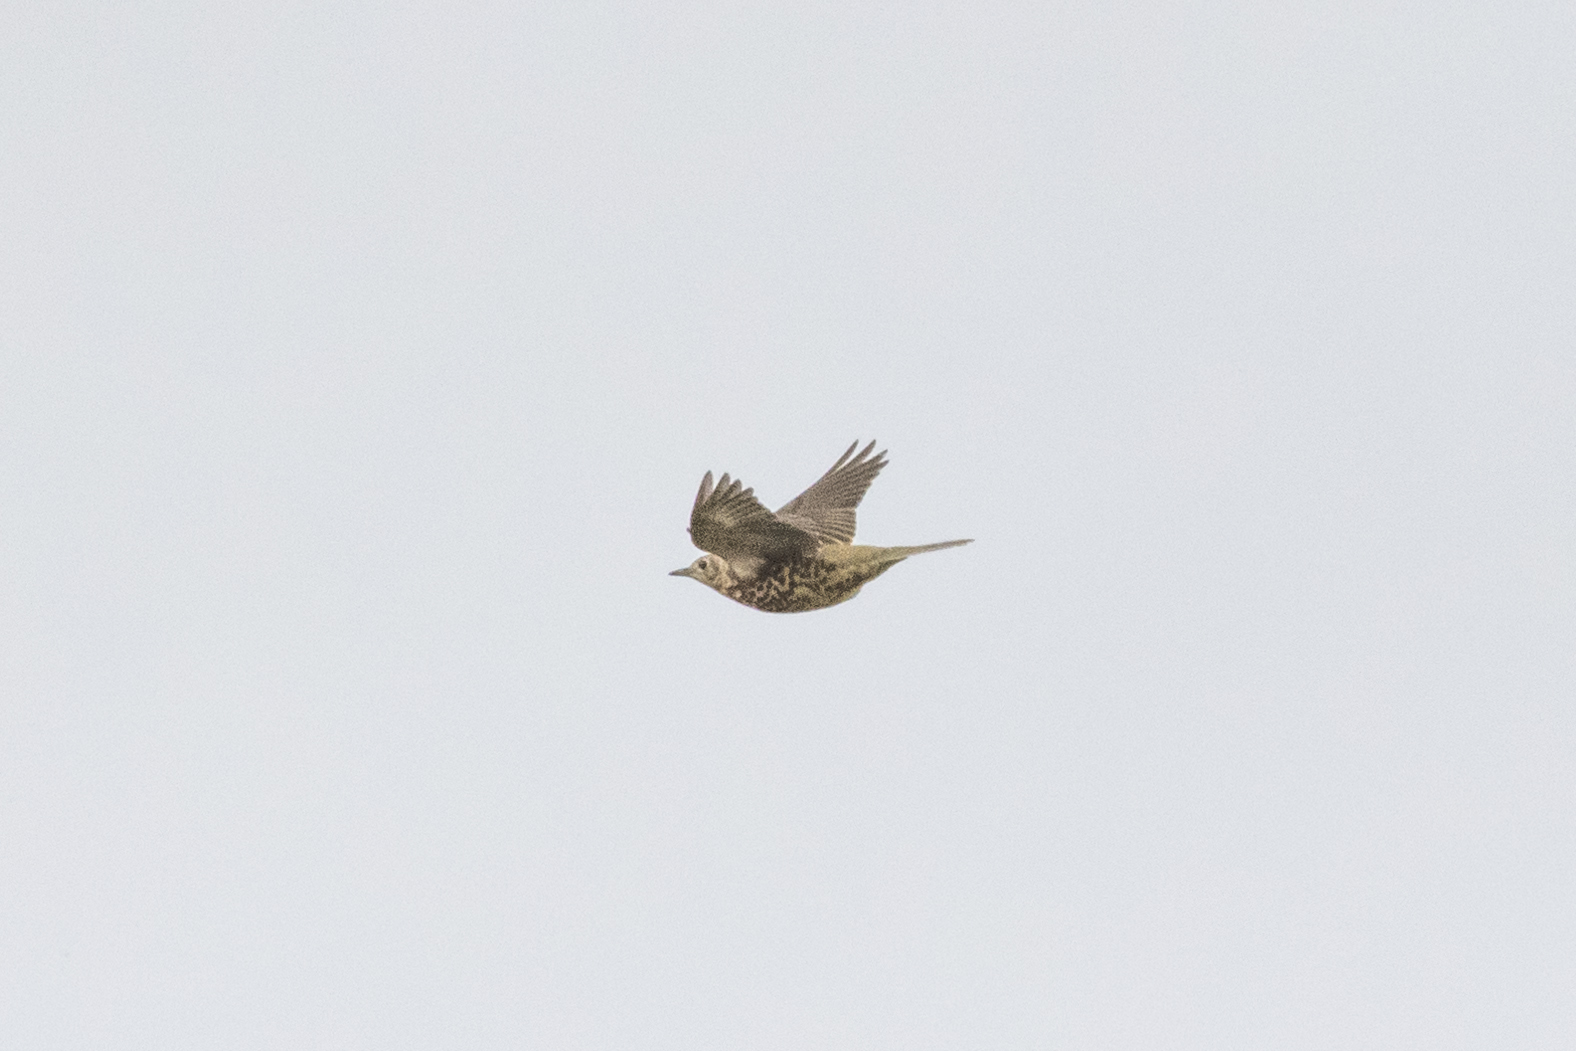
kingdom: Animalia
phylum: Chordata
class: Aves
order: Passeriformes
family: Turdidae
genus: Turdus
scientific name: Turdus viscivorus
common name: Mistle thrush
